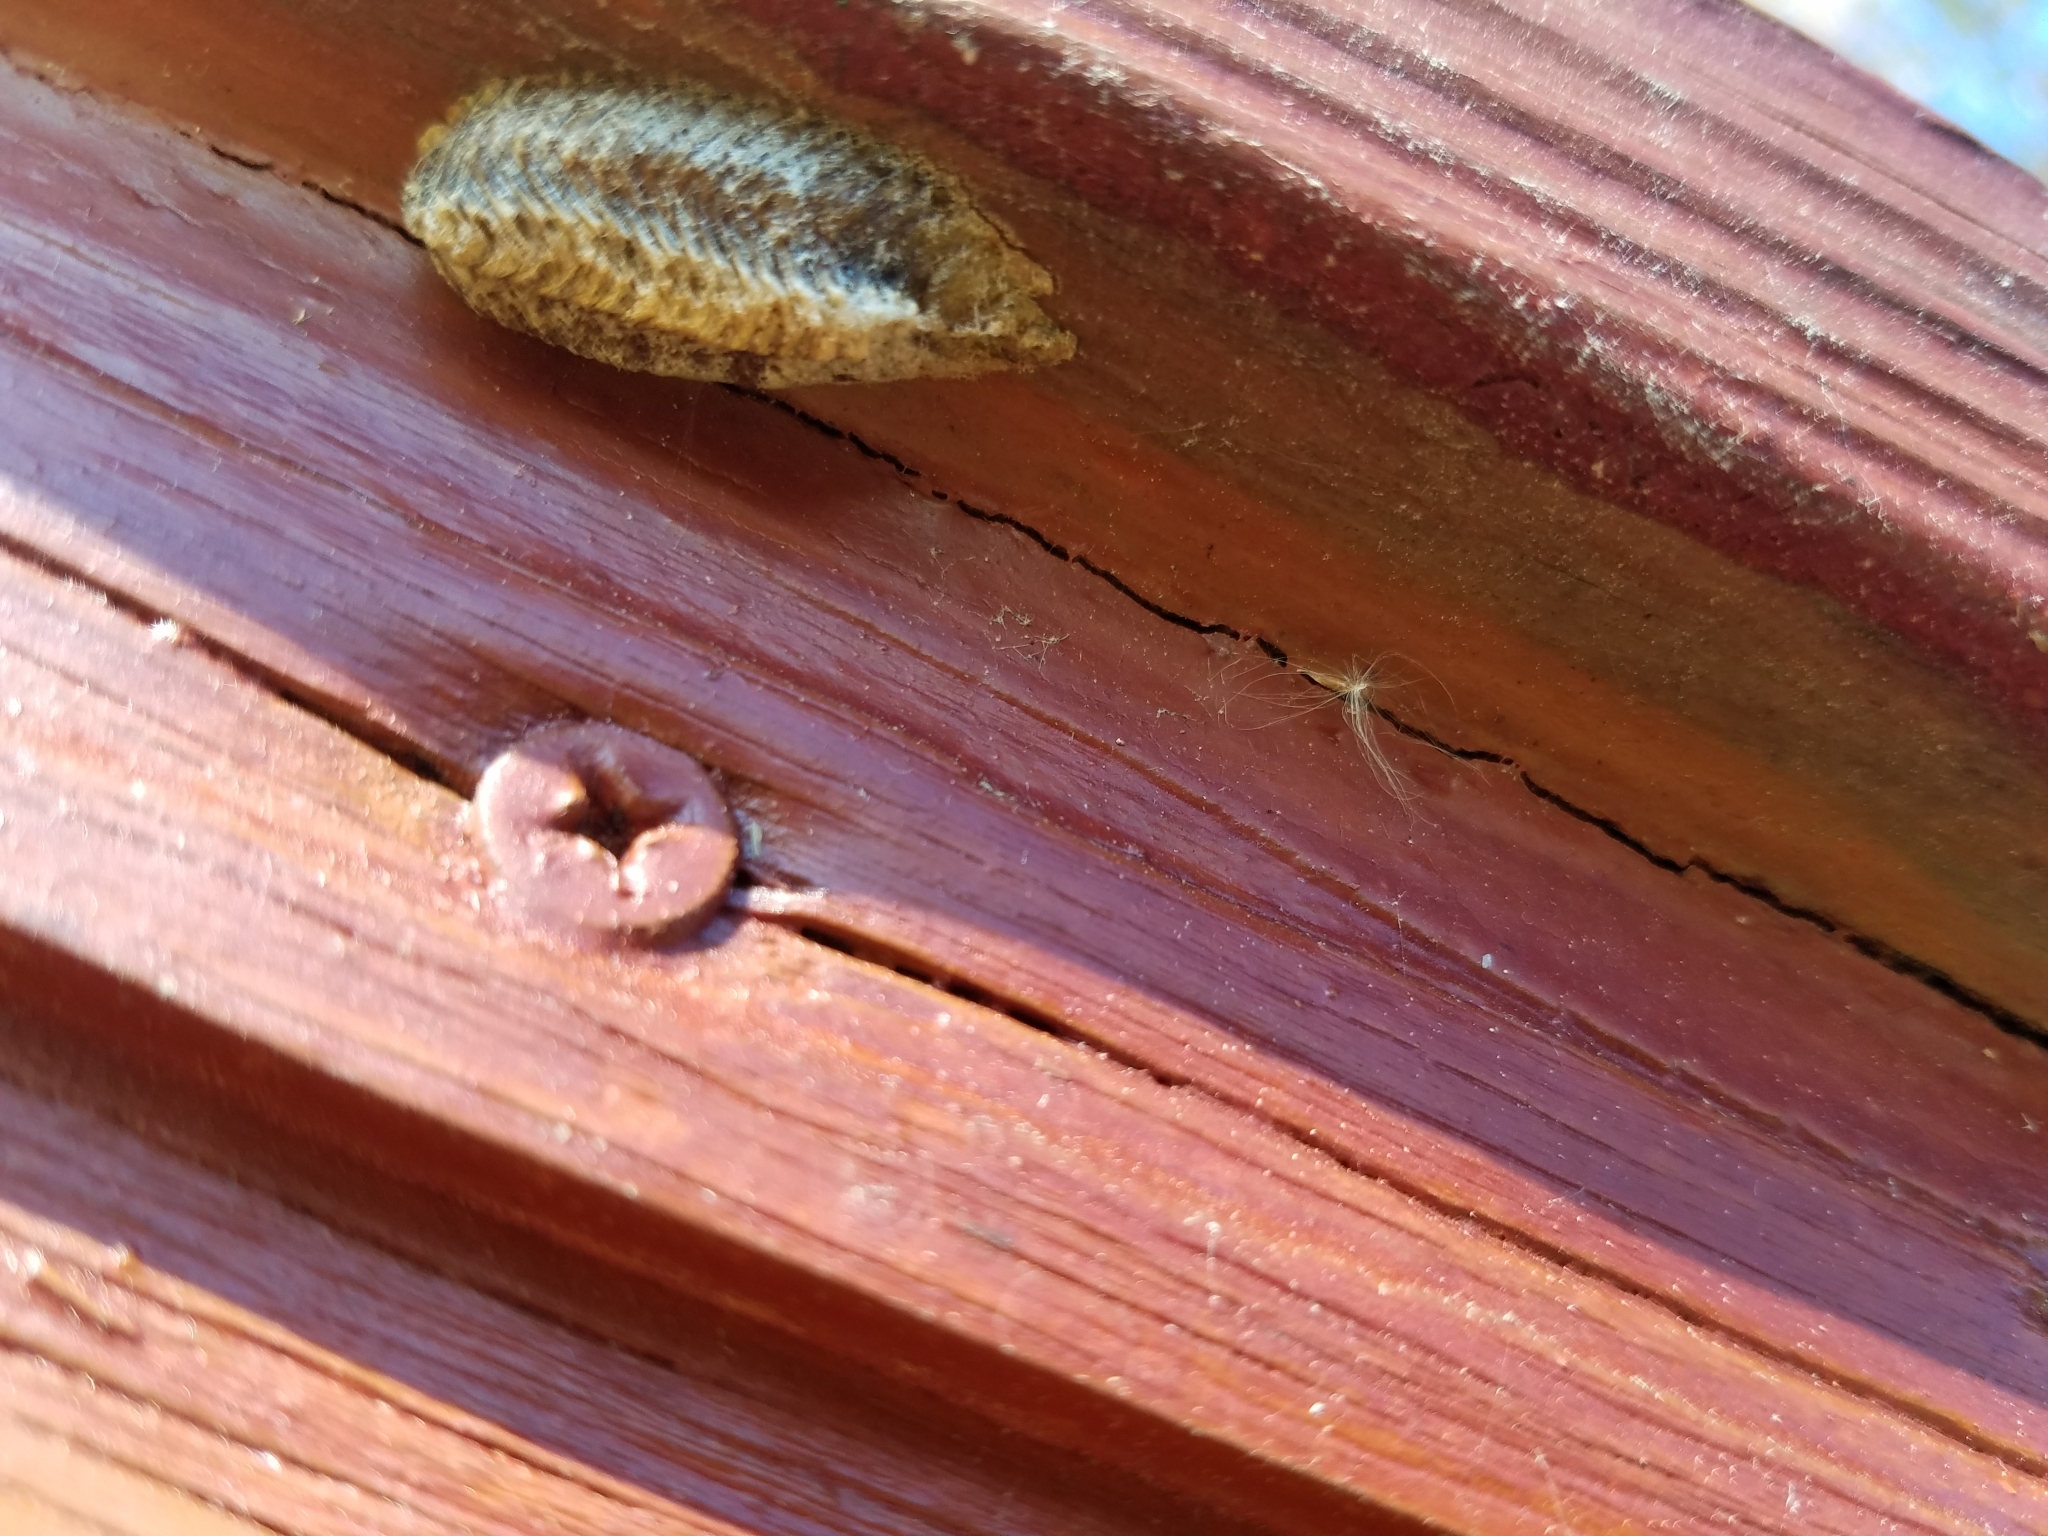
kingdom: Animalia
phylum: Arthropoda
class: Insecta
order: Mantodea
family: Mantidae
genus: Stagmomantis
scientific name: Stagmomantis carolina
